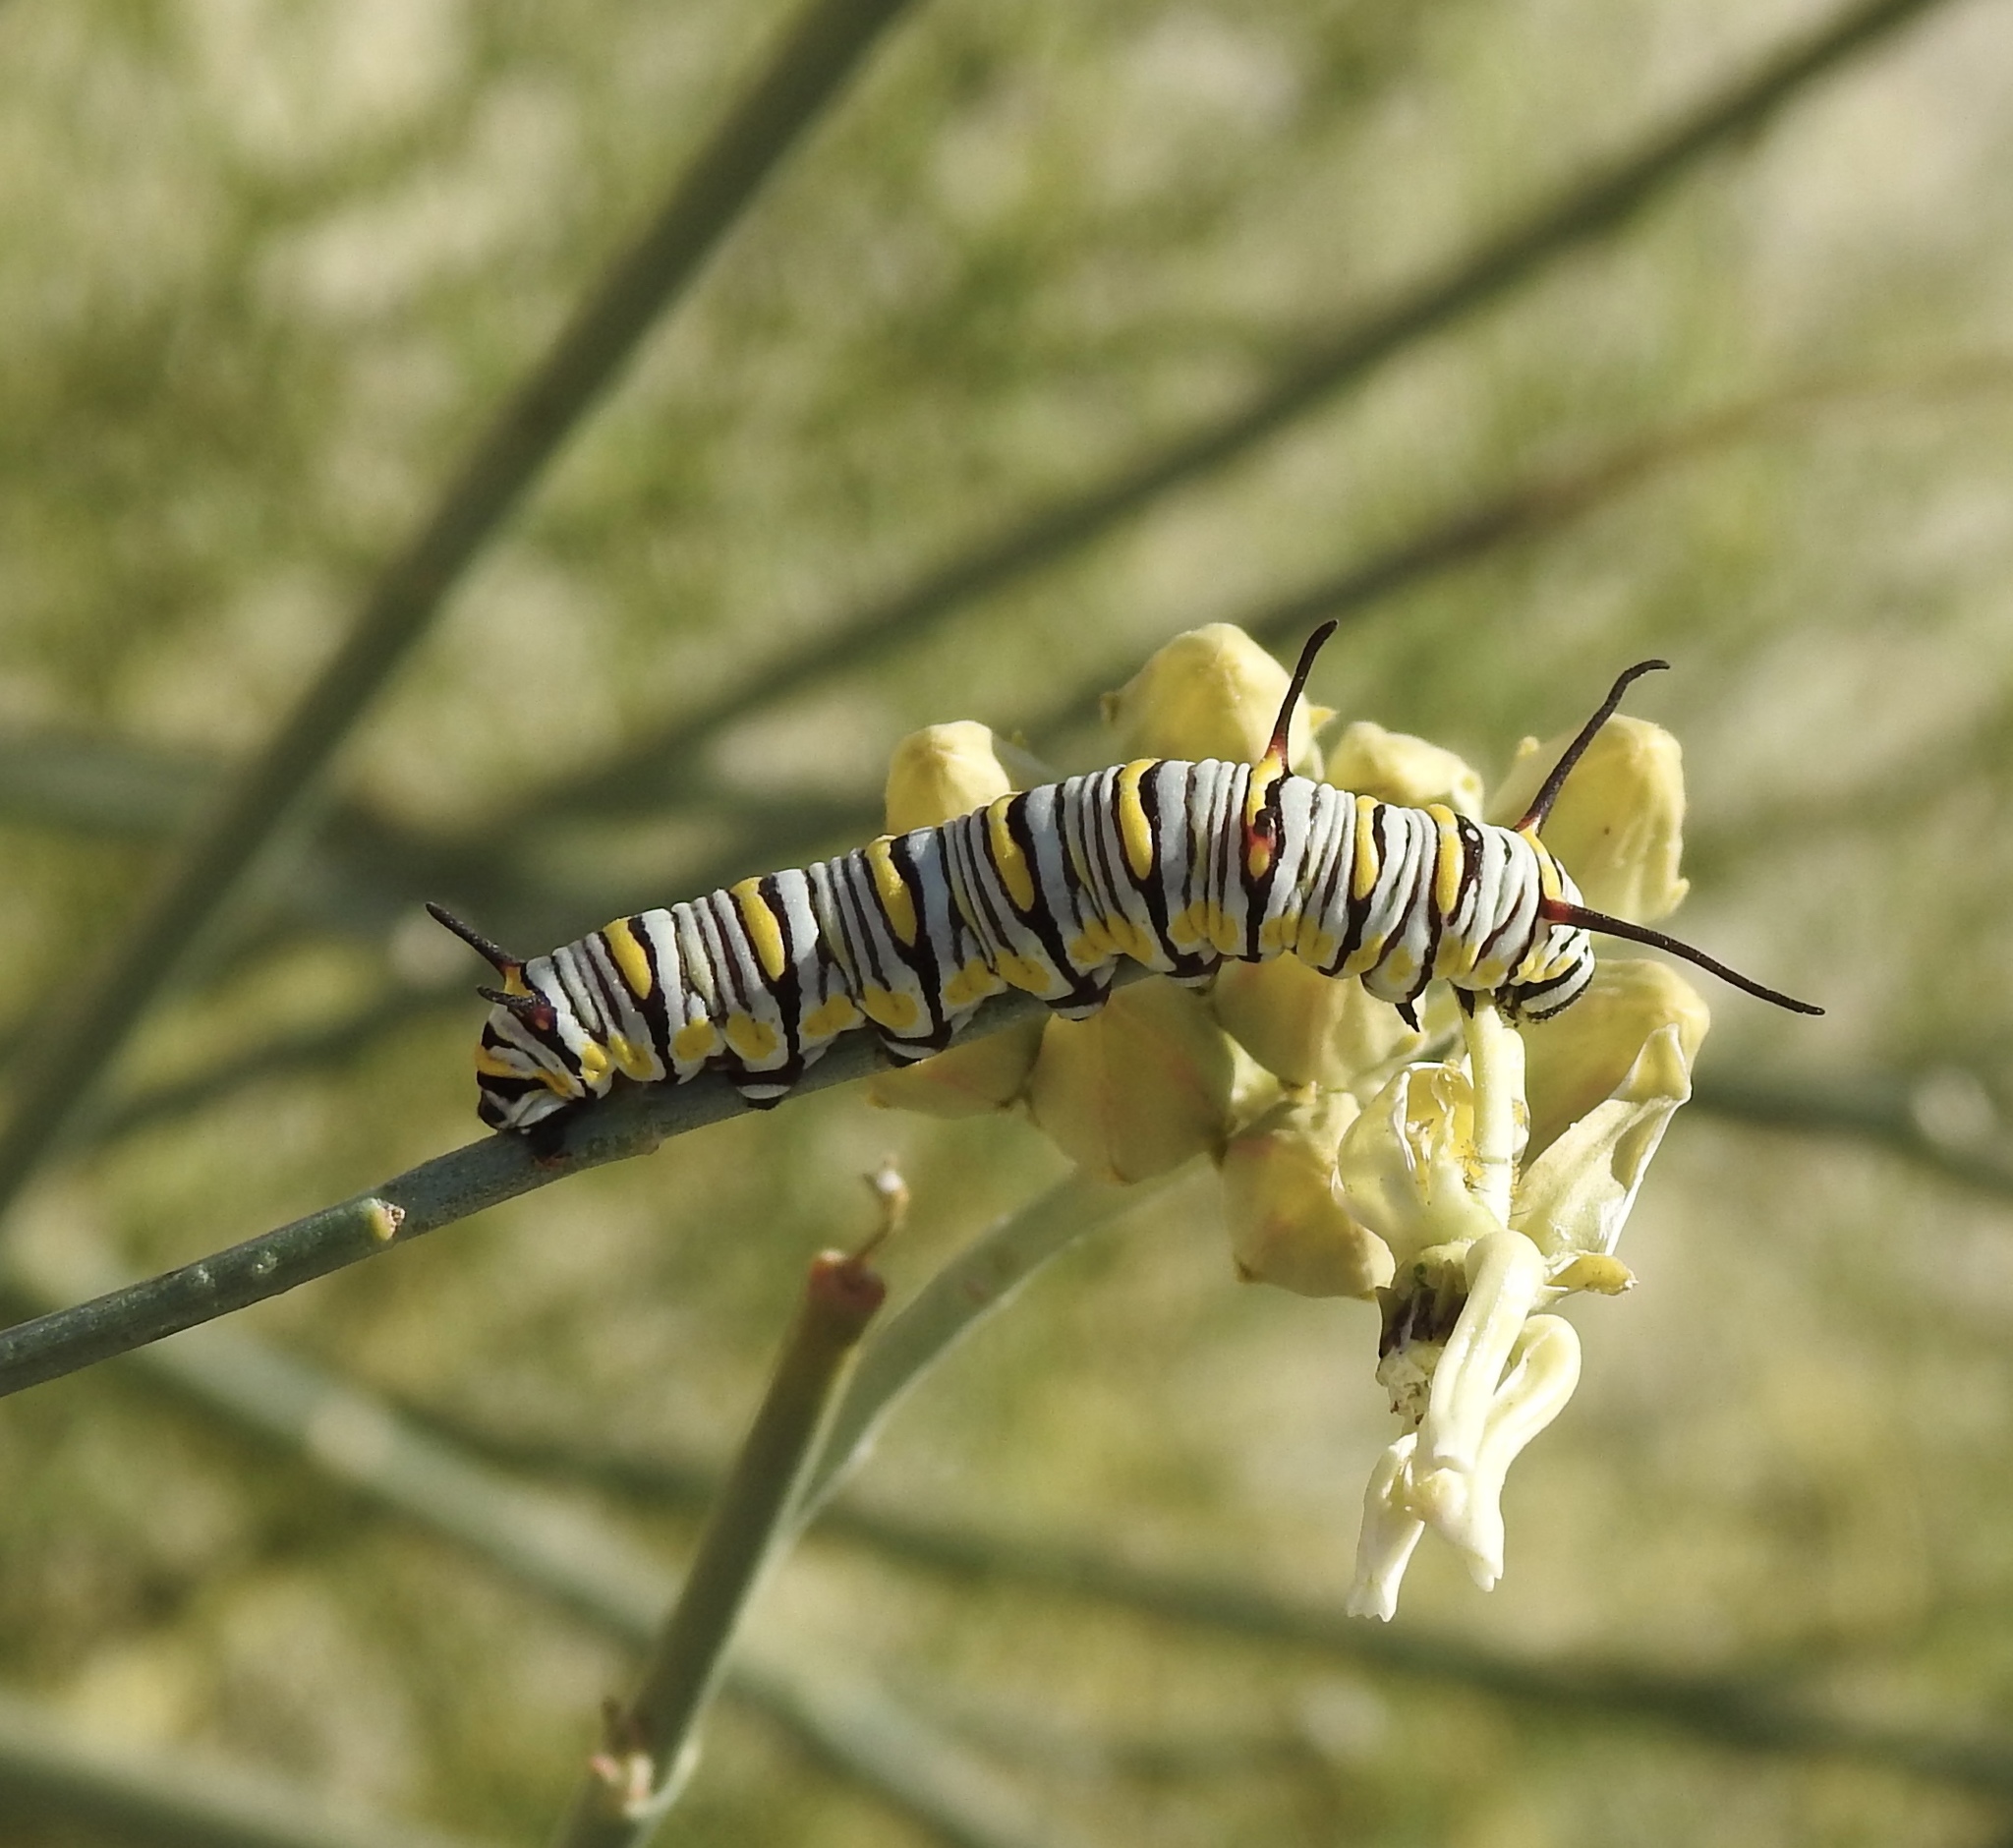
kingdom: Animalia
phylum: Arthropoda
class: Insecta
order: Lepidoptera
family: Nymphalidae
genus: Danaus
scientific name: Danaus gilippus
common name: Queen
